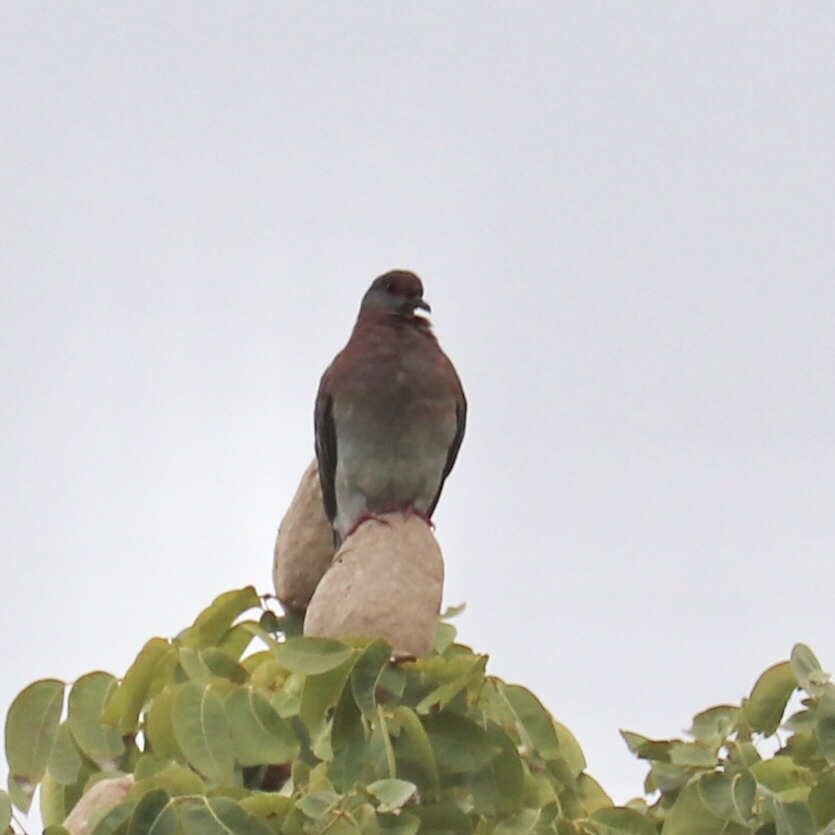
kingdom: Animalia
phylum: Chordata
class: Aves
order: Columbiformes
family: Columbidae
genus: Patagioenas
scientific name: Patagioenas cayennensis
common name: Pale-vented pigeon
